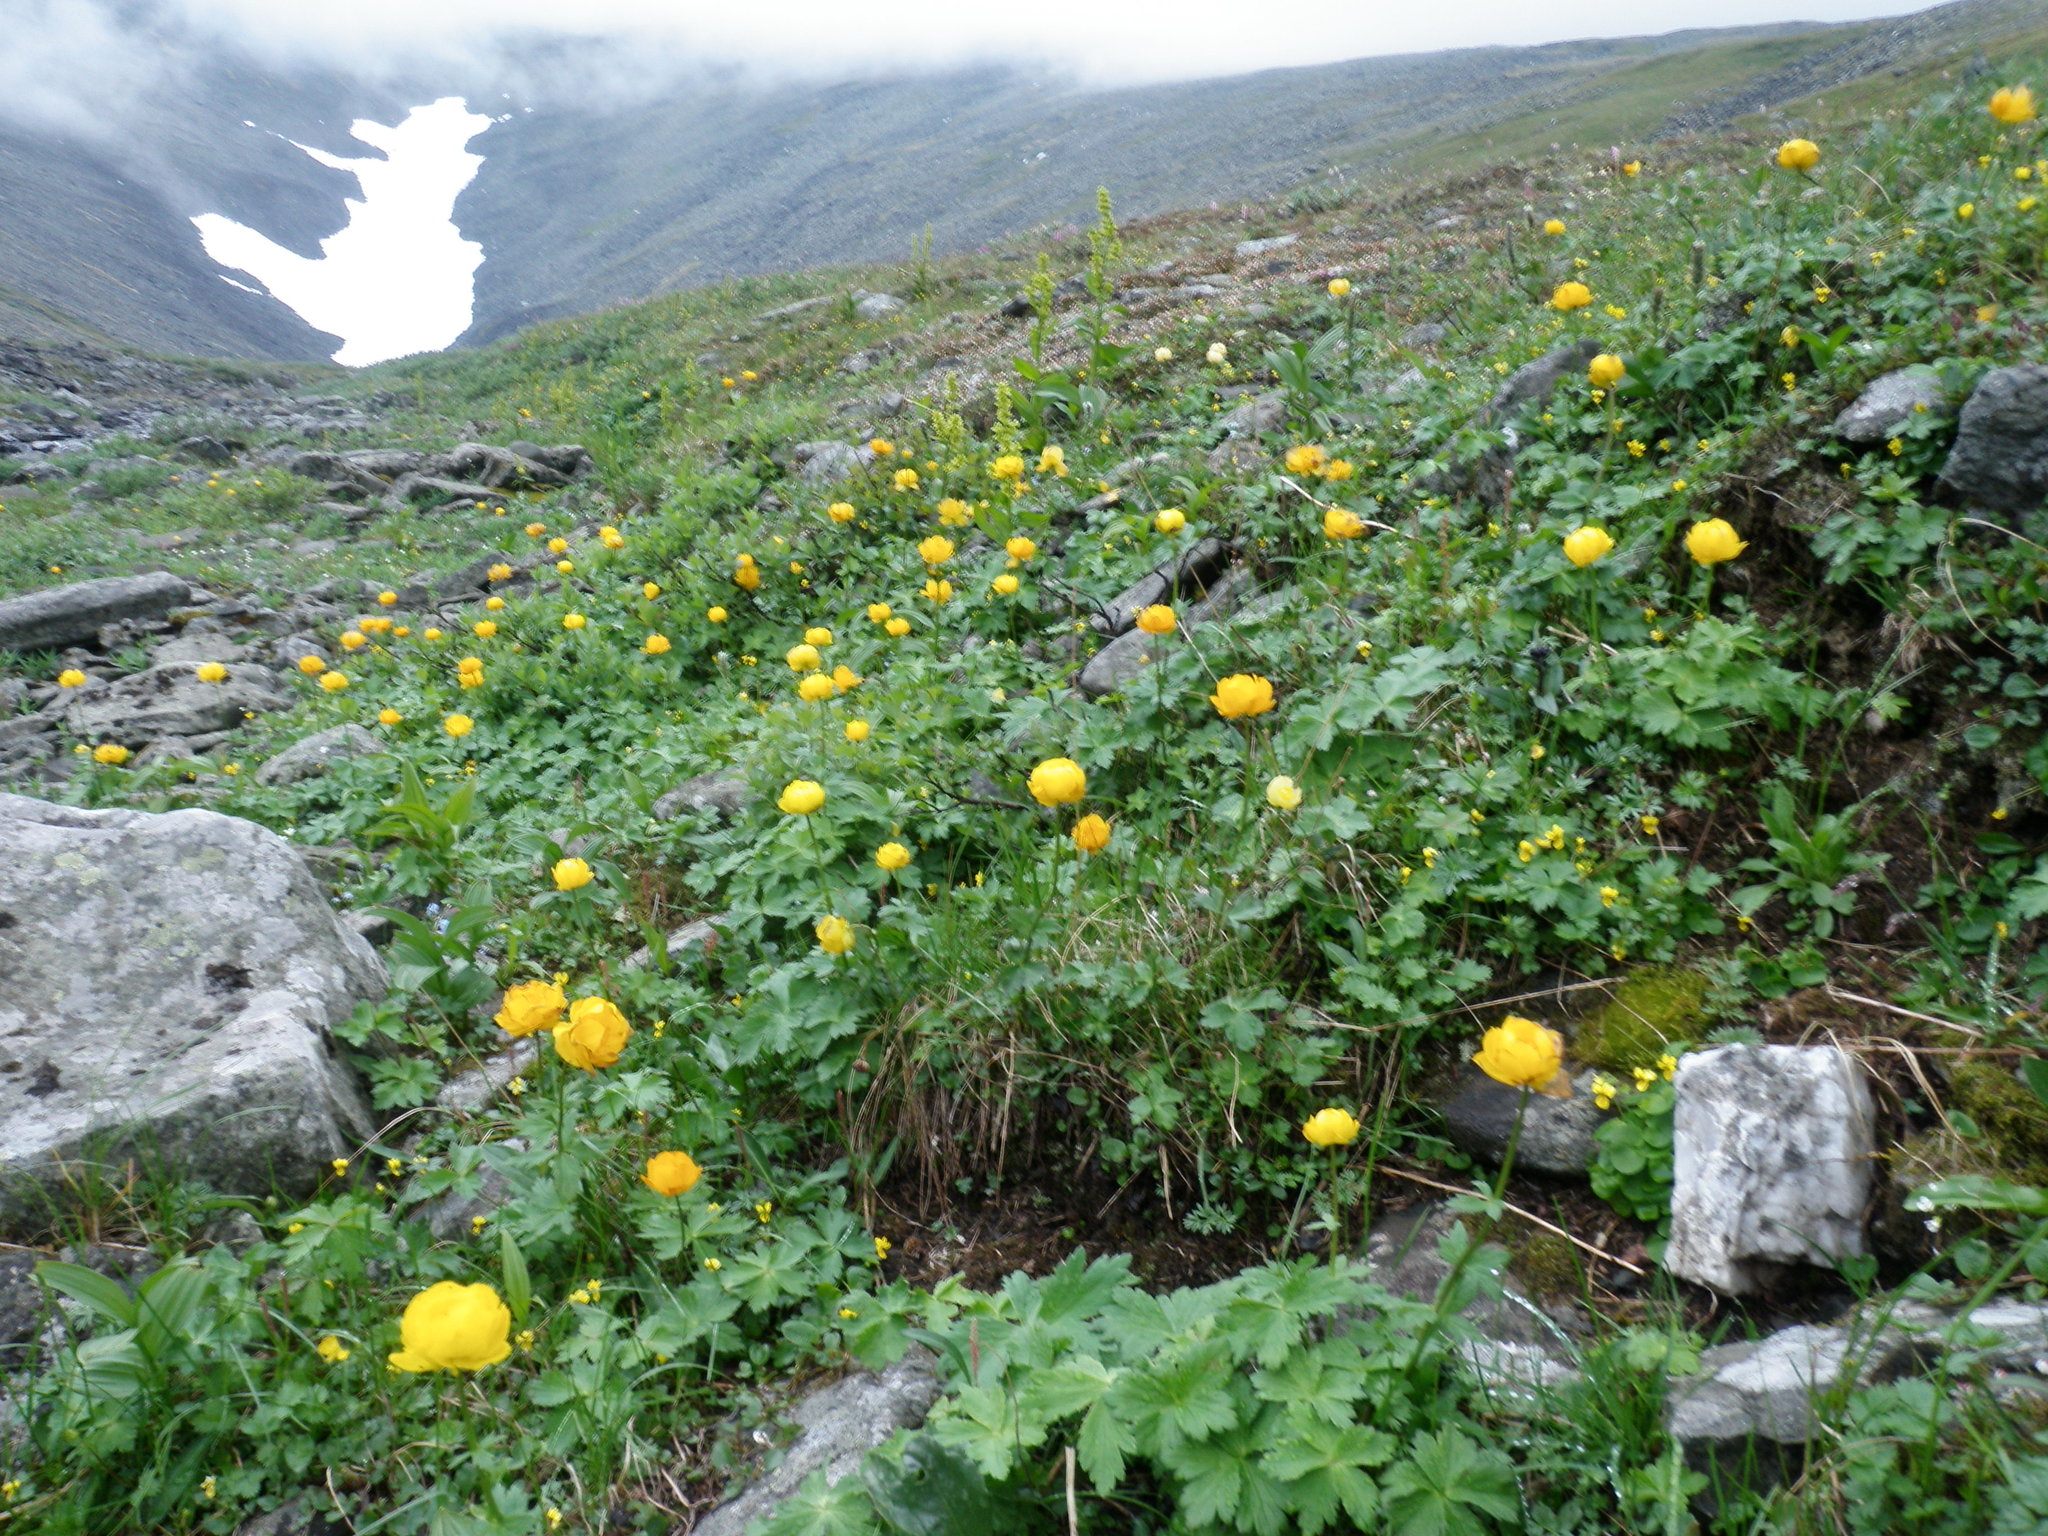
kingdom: Plantae
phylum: Tracheophyta
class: Magnoliopsida
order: Ranunculales
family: Ranunculaceae
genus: Trollius
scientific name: Trollius apertus
